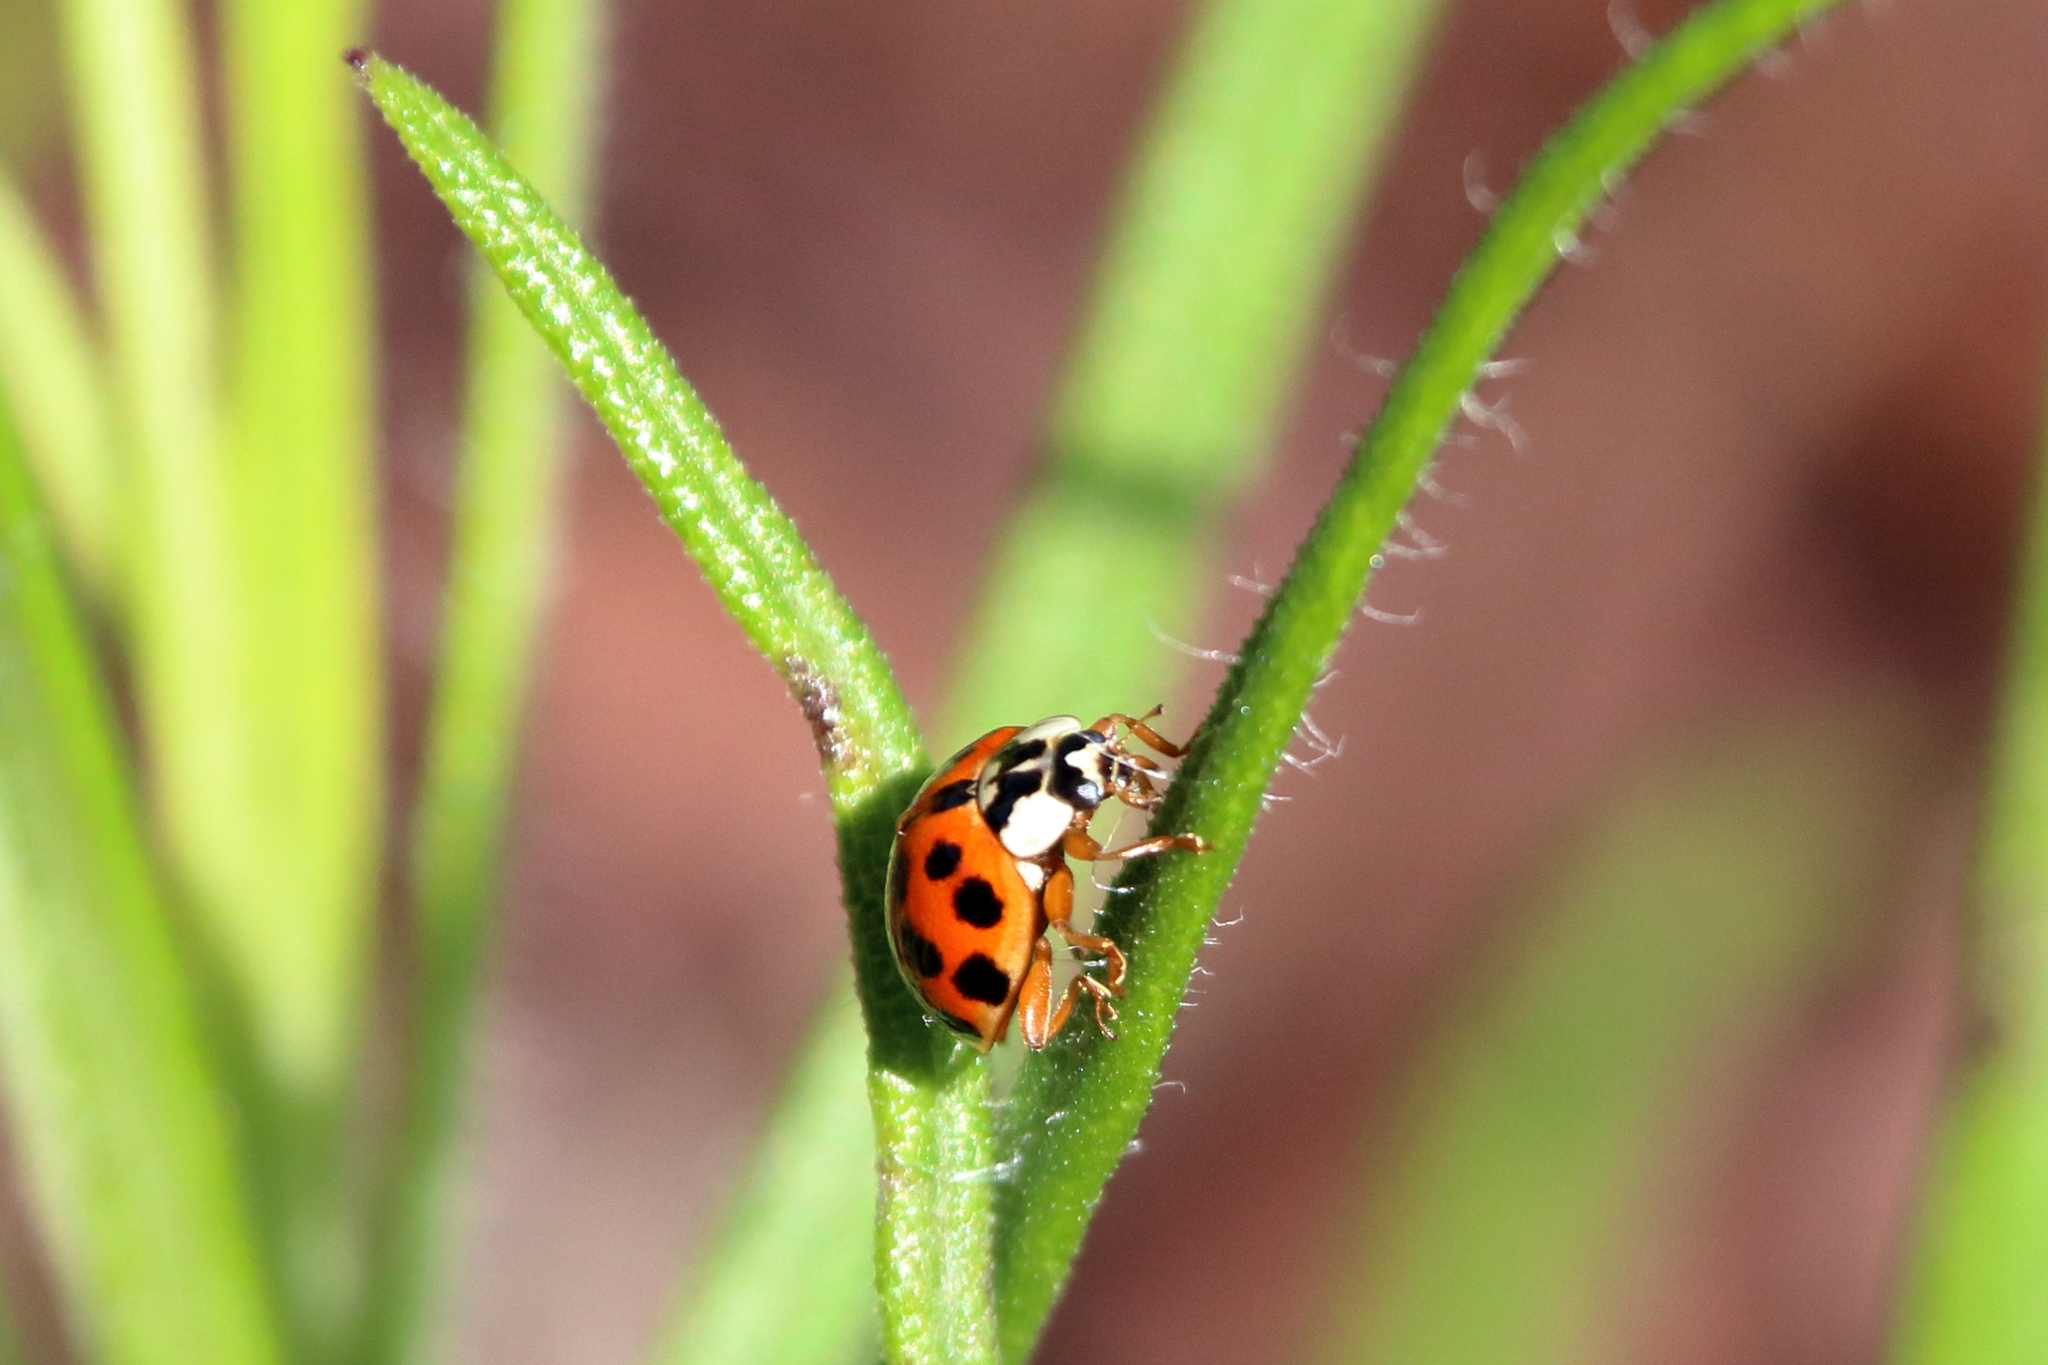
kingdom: Animalia
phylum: Arthropoda
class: Insecta
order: Coleoptera
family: Coccinellidae
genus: Harmonia
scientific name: Harmonia axyridis
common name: Harlequin ladybird
